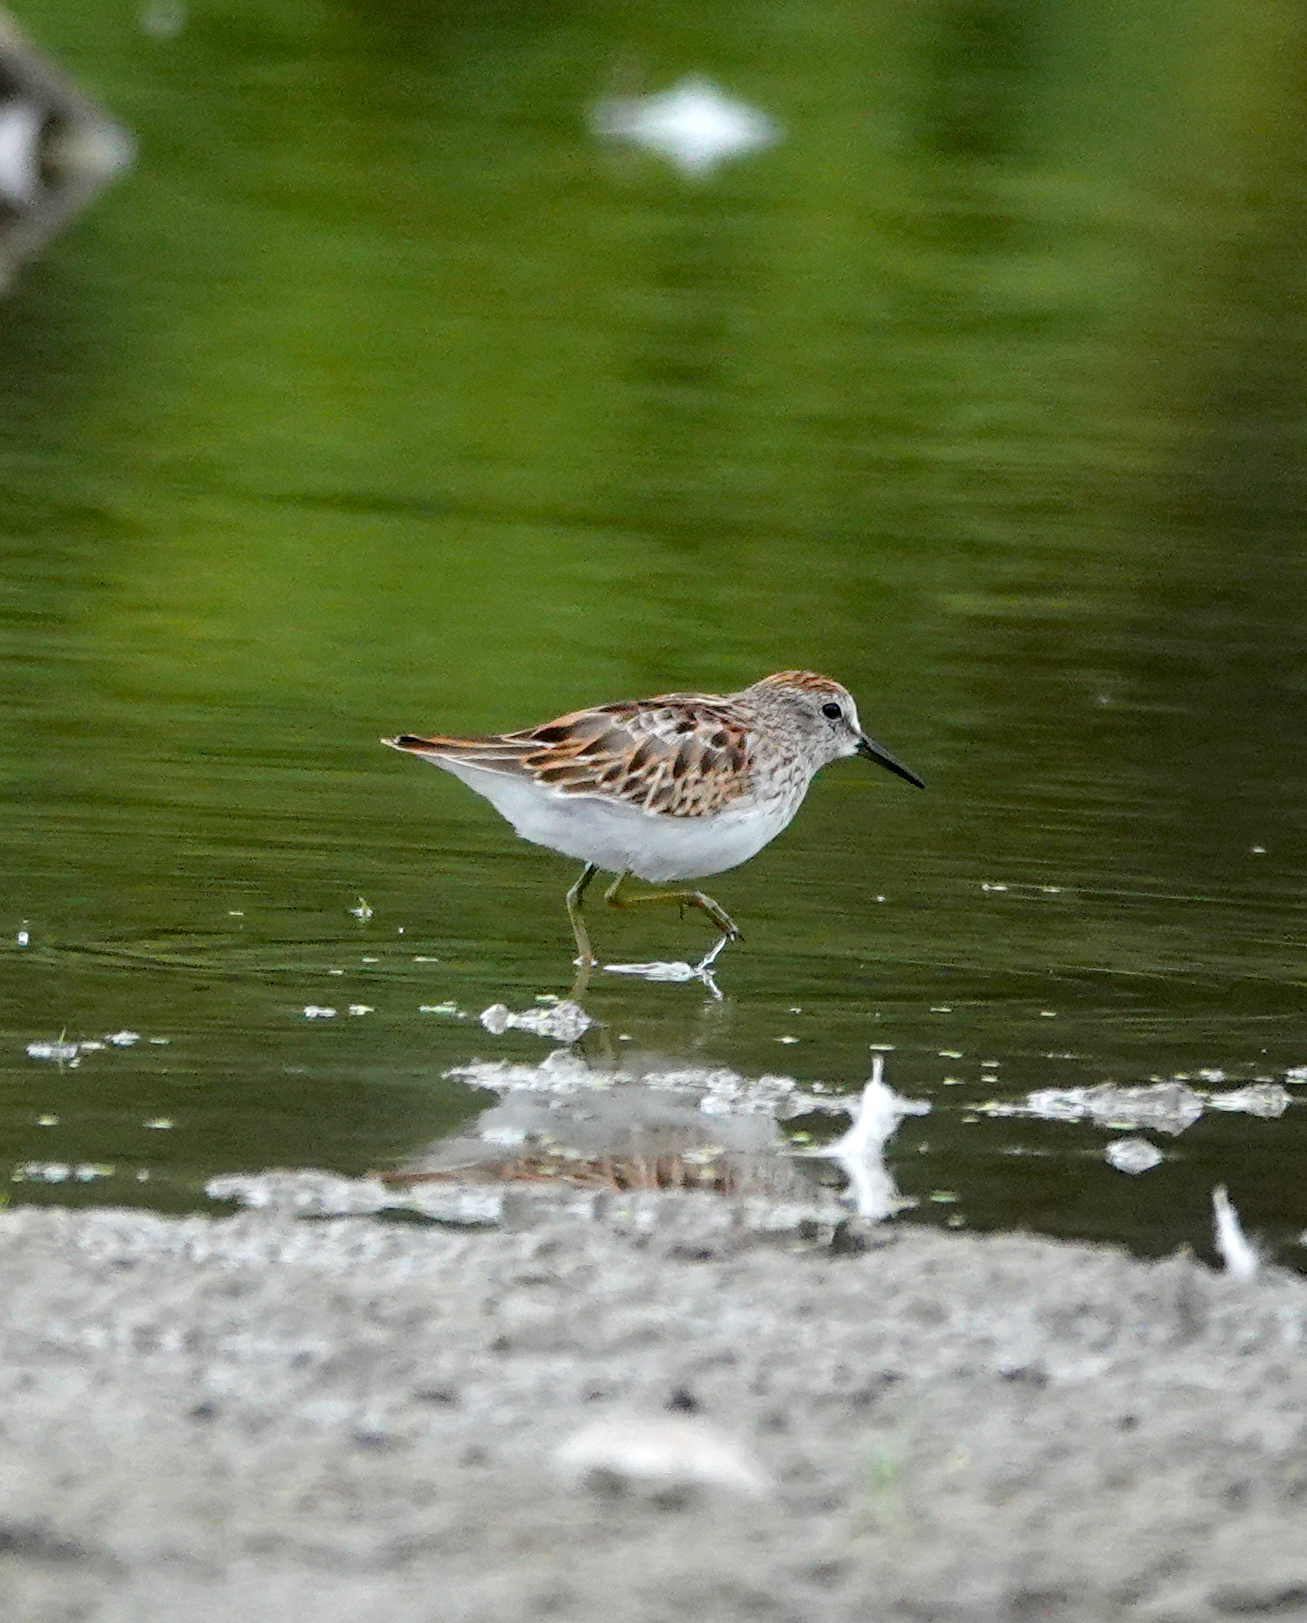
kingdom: Animalia
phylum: Chordata
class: Aves
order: Charadriiformes
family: Scolopacidae
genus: Calidris
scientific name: Calidris minutilla
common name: Least sandpiper
